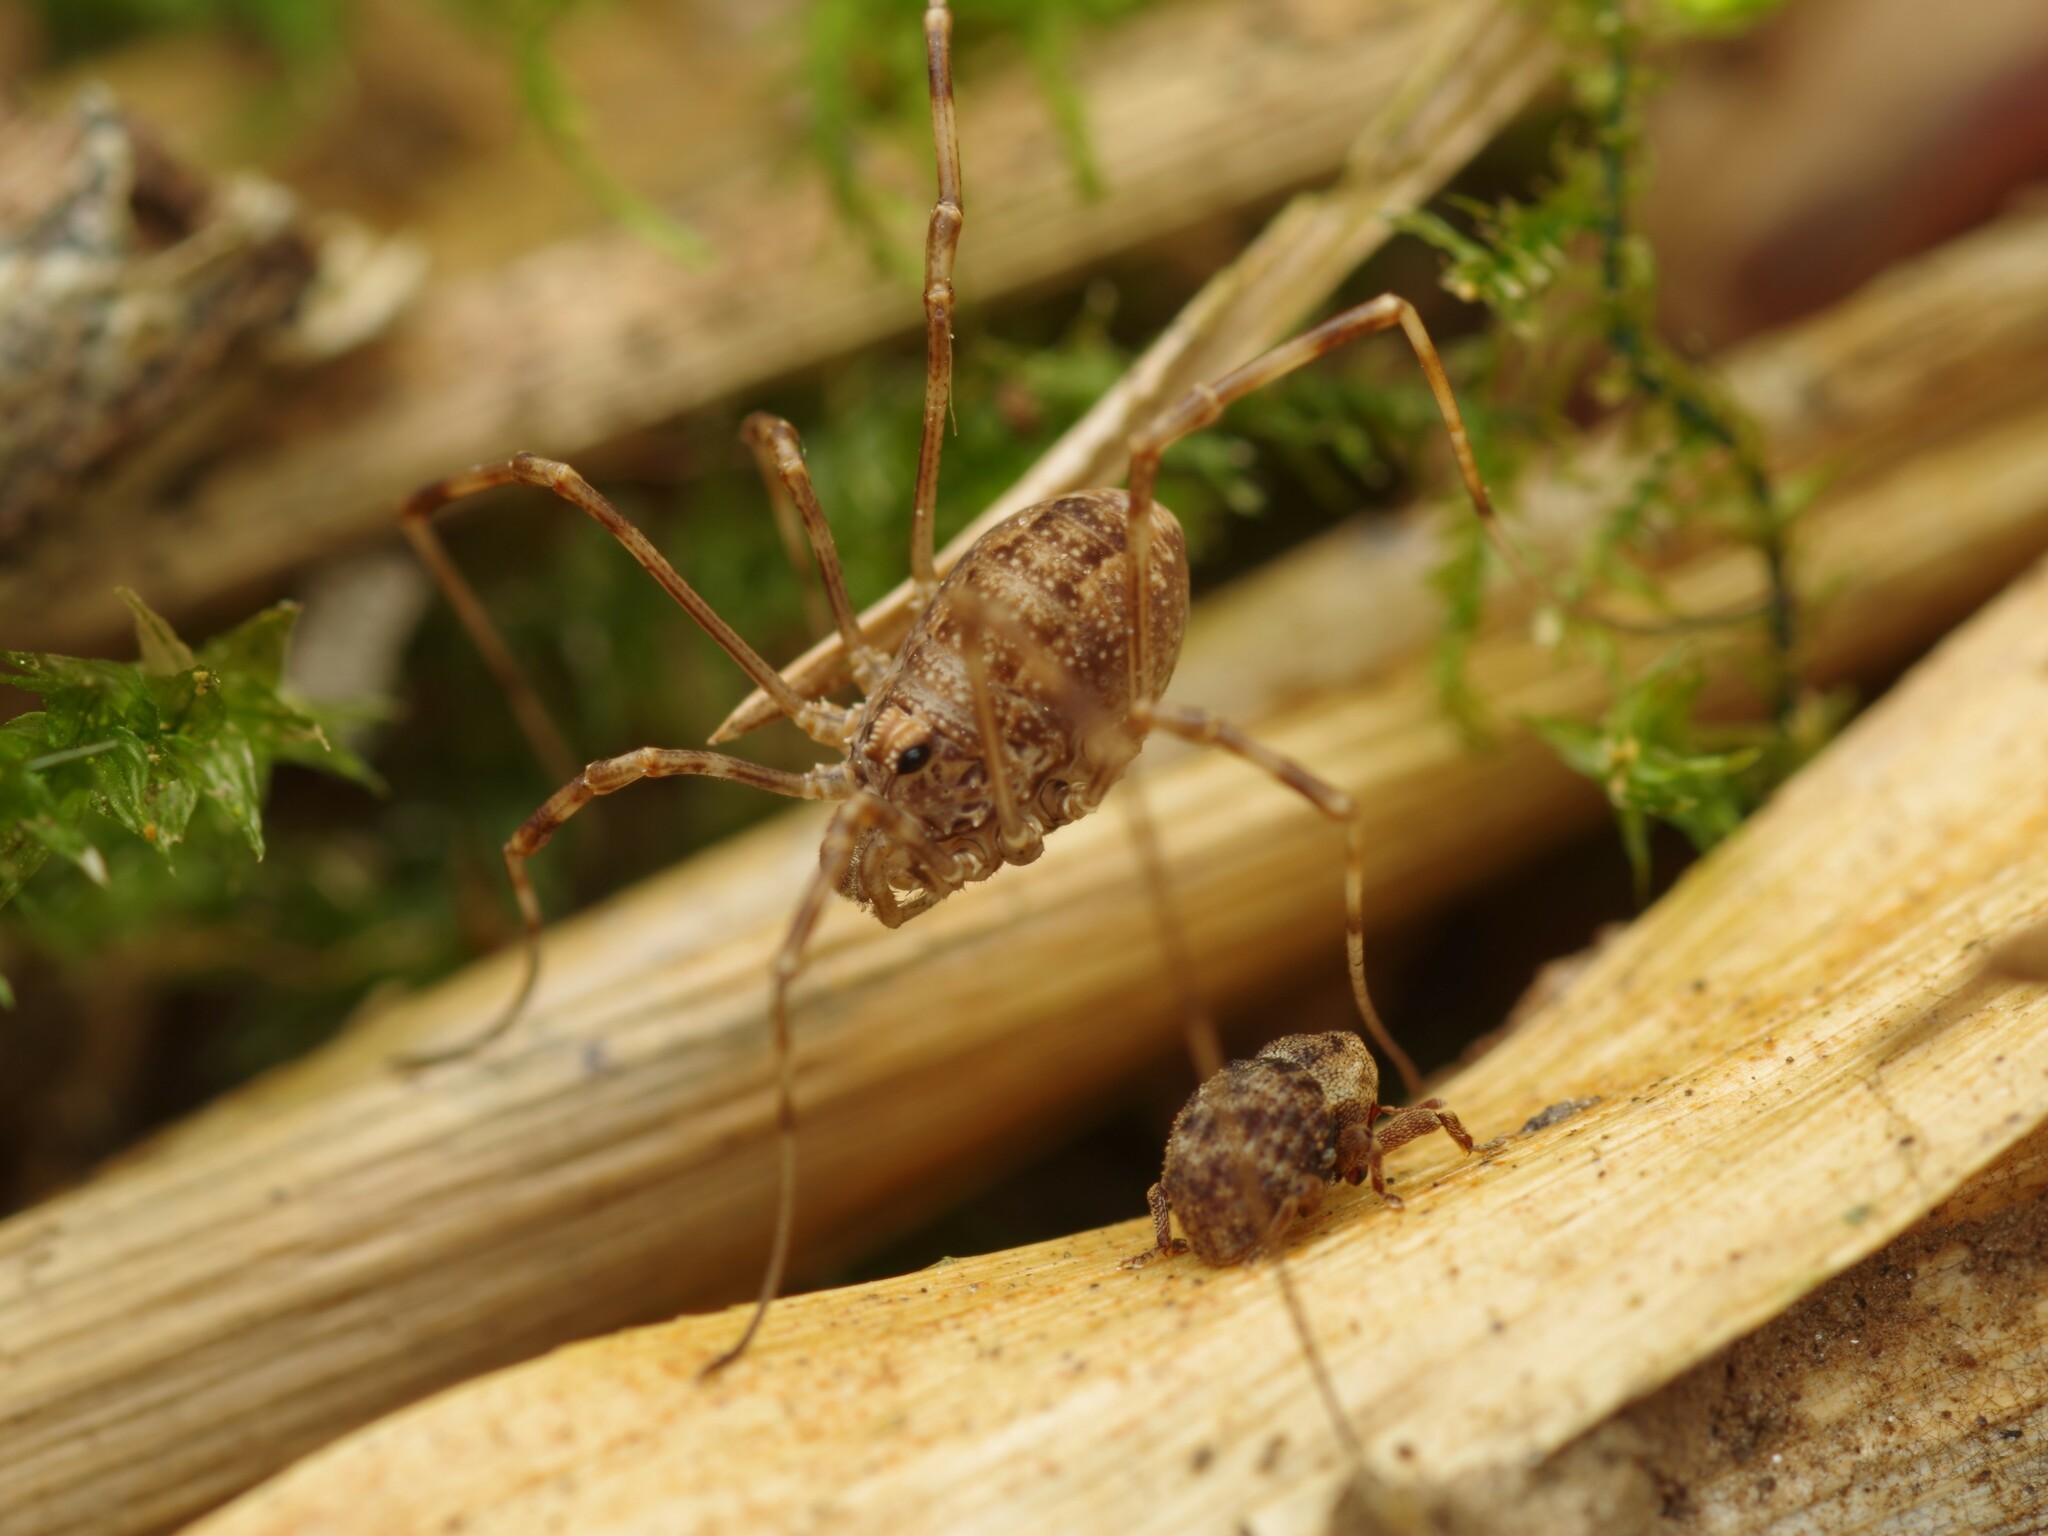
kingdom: Animalia
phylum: Arthropoda
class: Arachnida
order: Opiliones
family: Phalangiidae
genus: Rilaena
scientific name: Rilaena triangularis
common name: Spring harvestman
